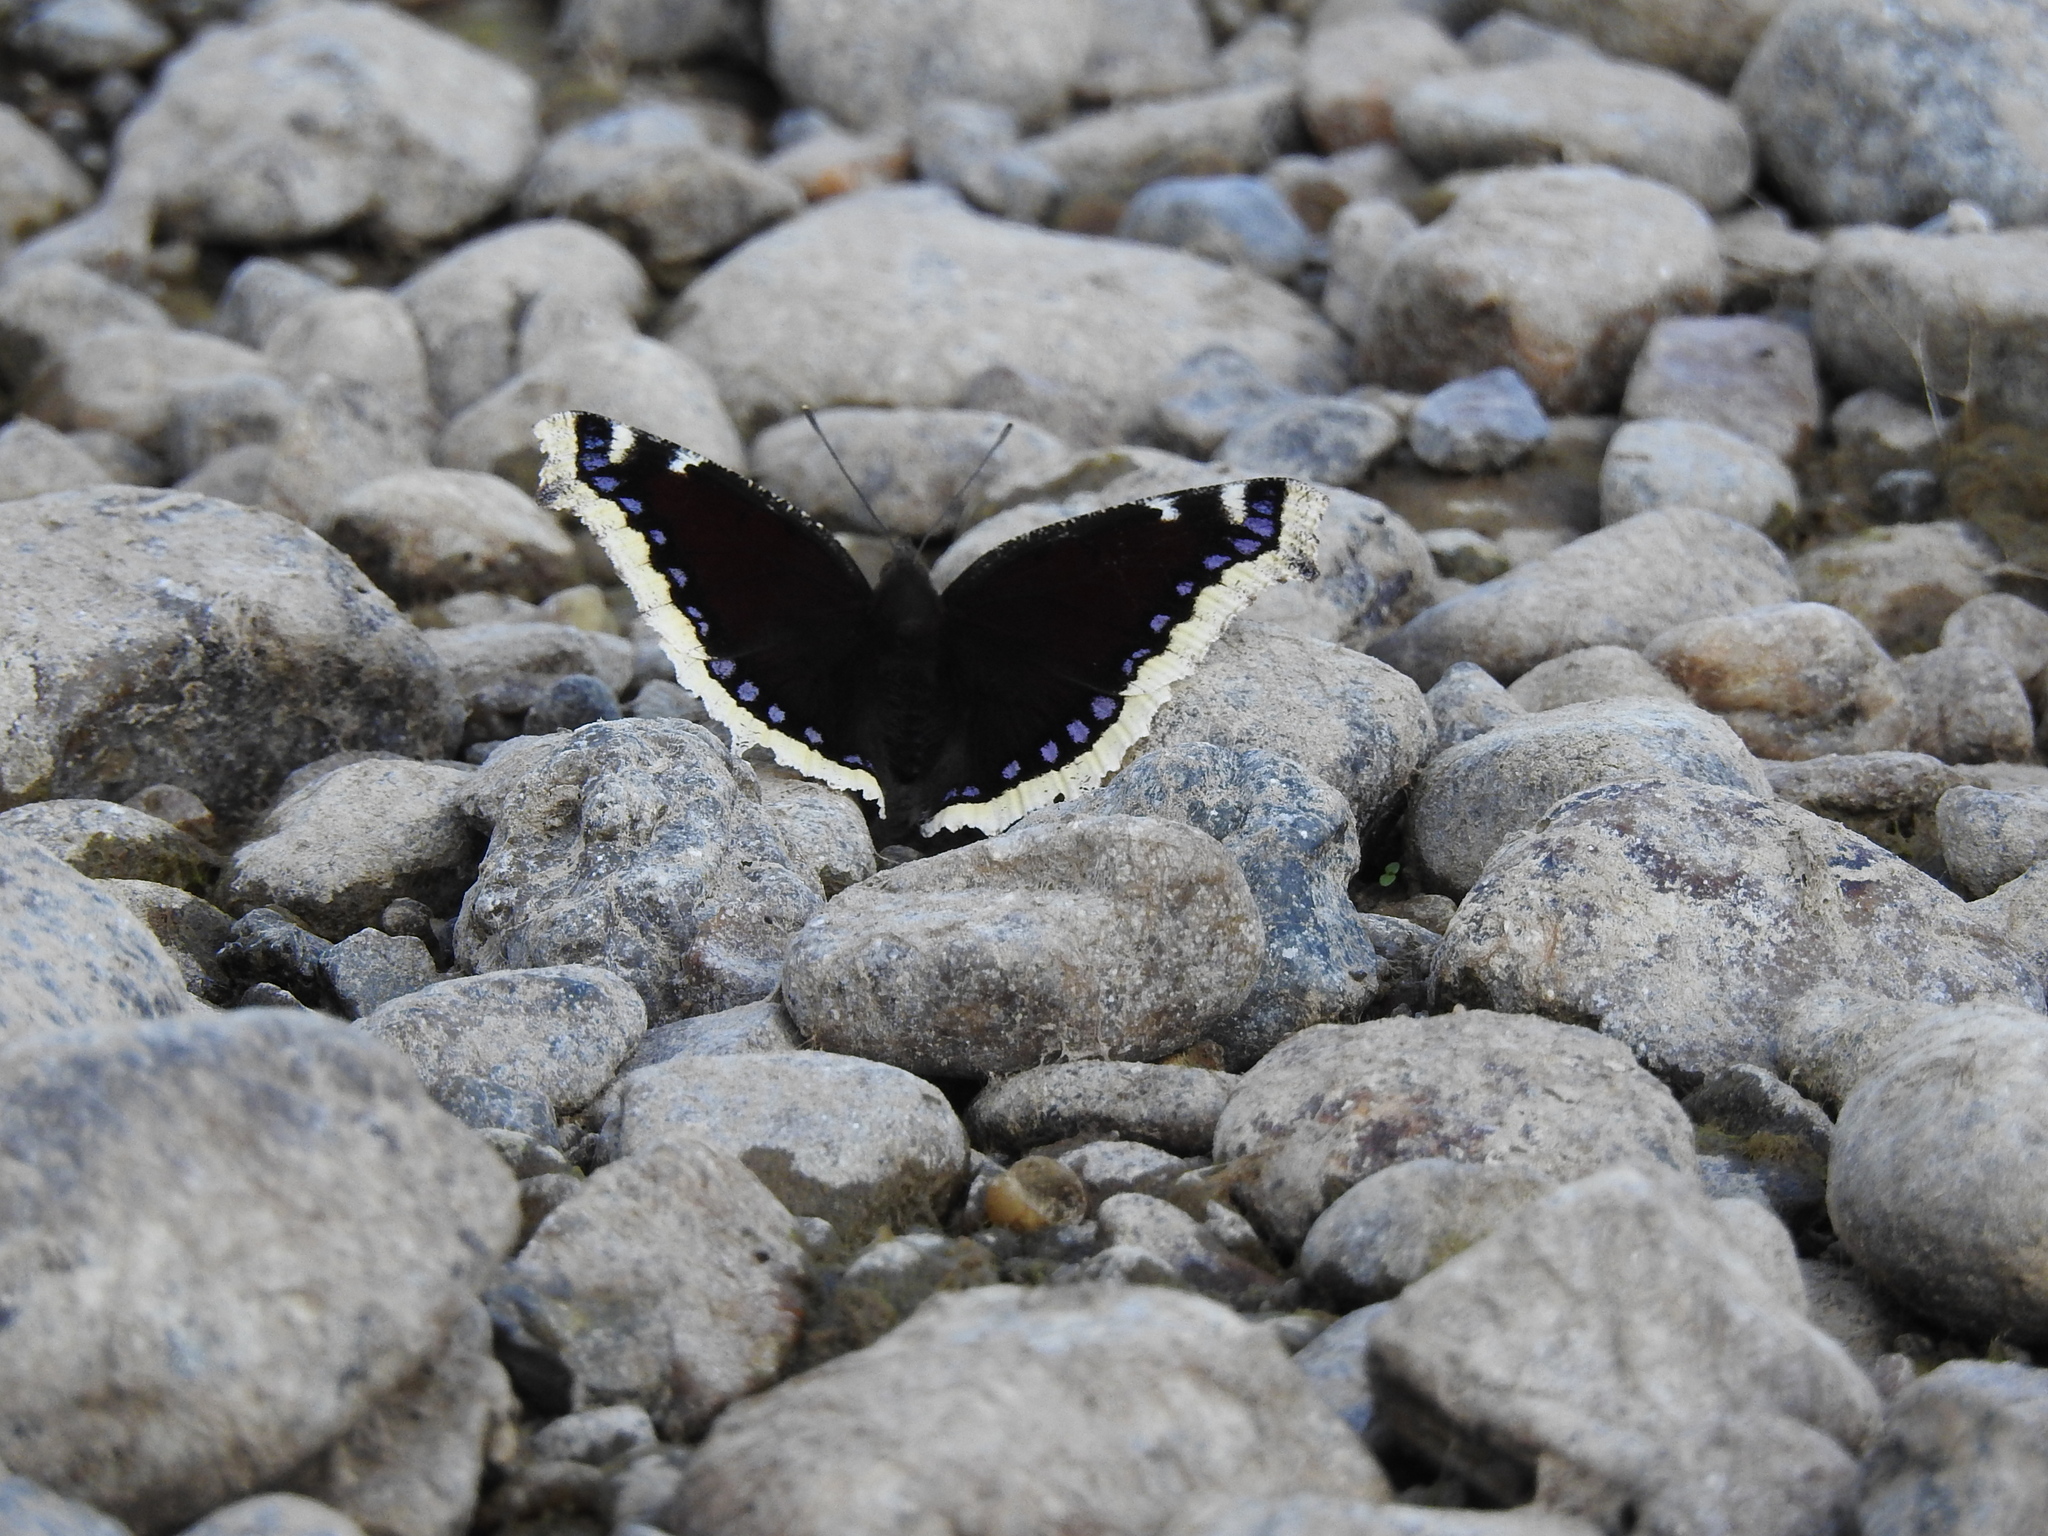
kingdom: Animalia
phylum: Arthropoda
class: Insecta
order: Lepidoptera
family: Nymphalidae
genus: Nymphalis
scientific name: Nymphalis antiopa
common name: Camberwell beauty
